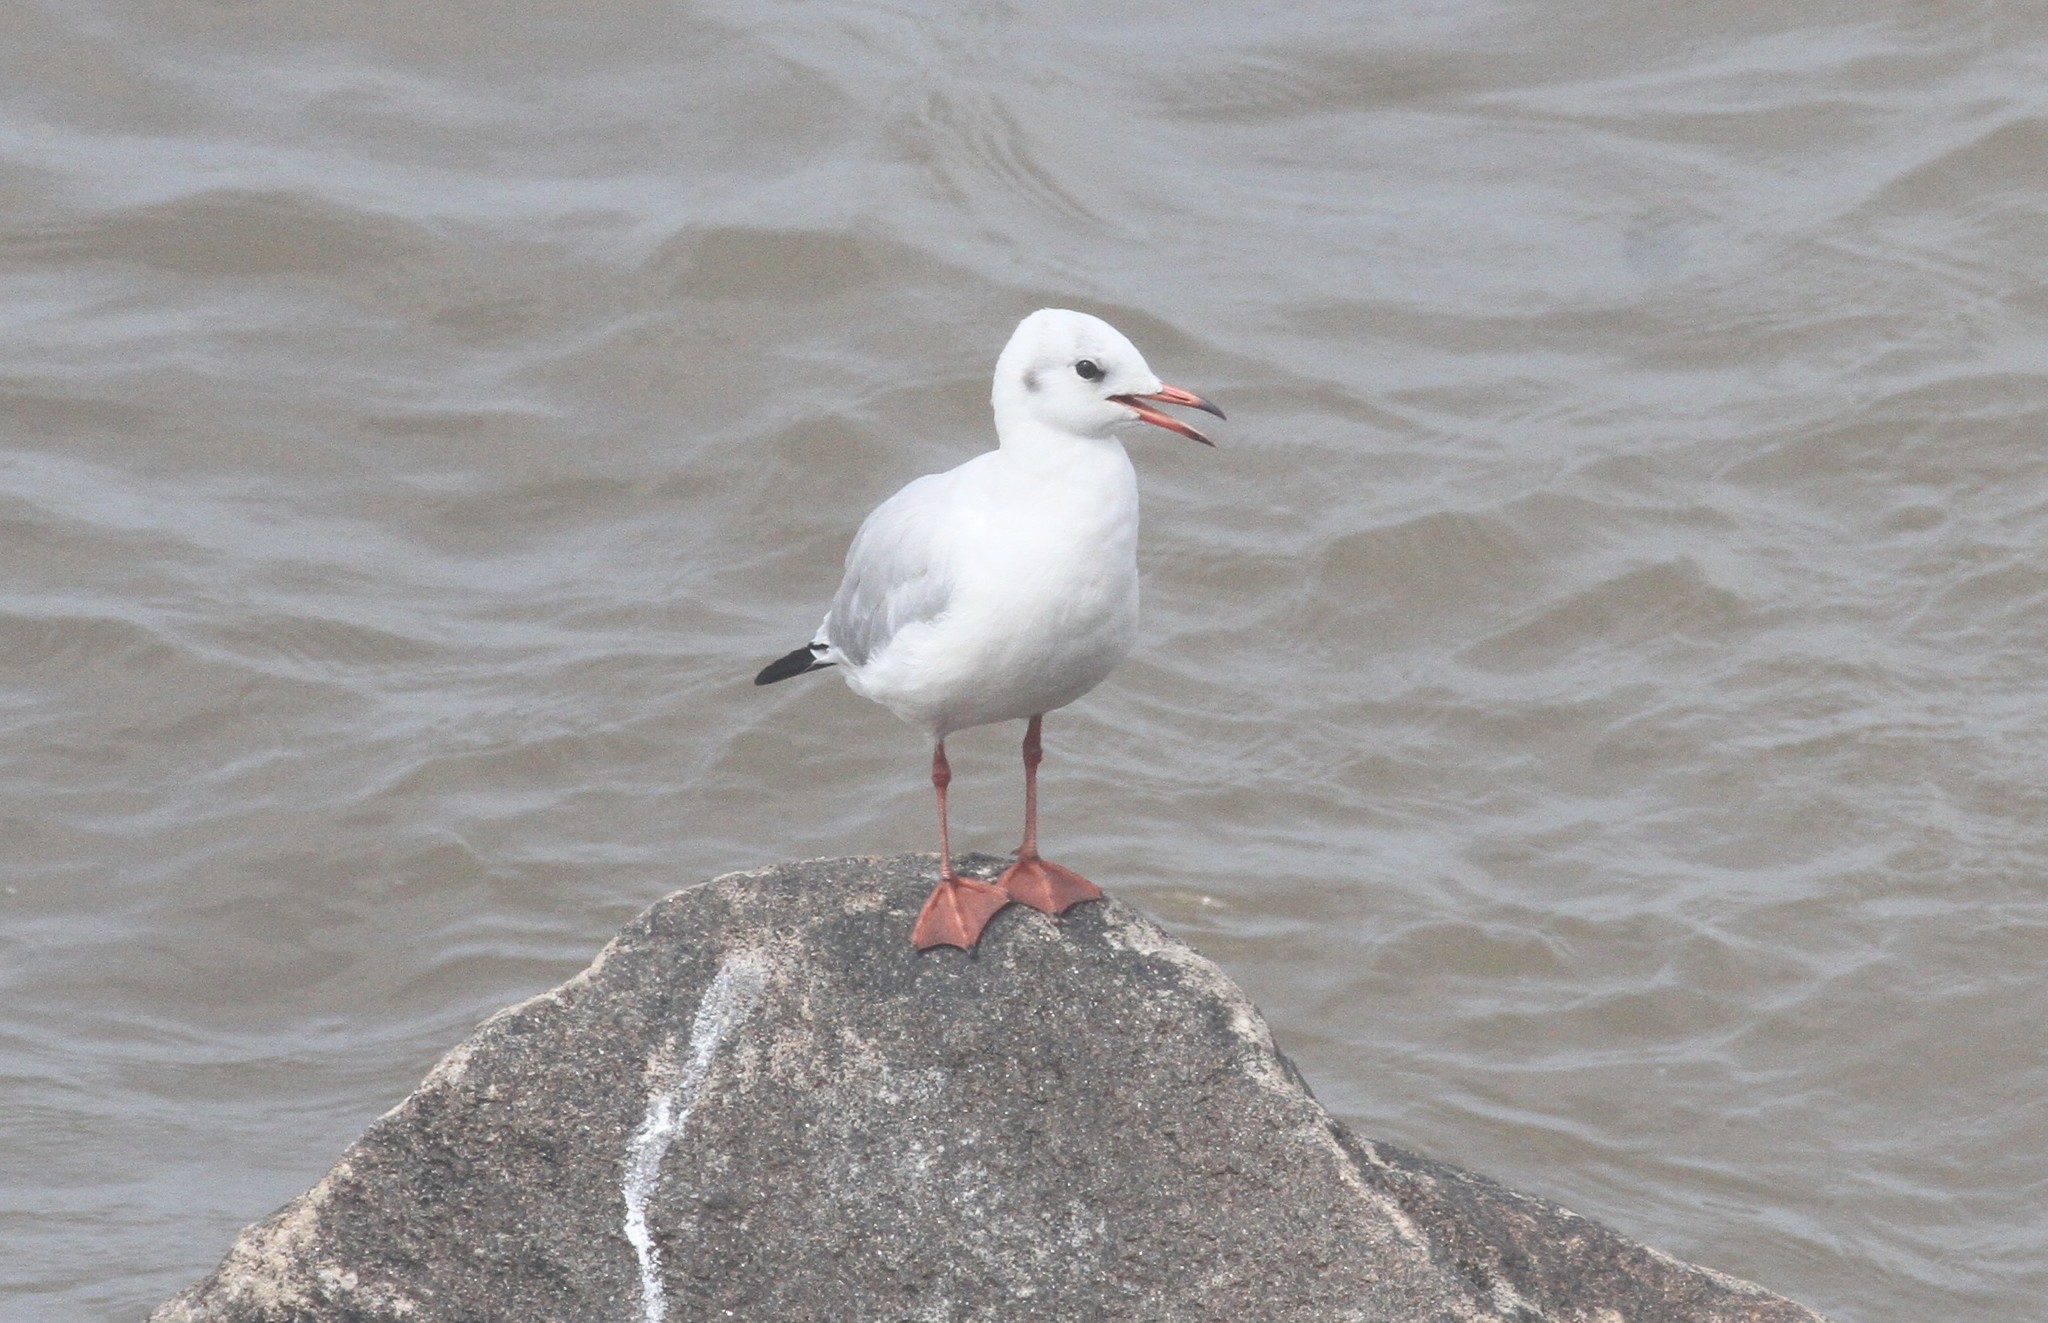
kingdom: Animalia
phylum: Chordata
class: Aves
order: Charadriiformes
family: Laridae
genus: Chroicocephalus
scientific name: Chroicocephalus ridibundus
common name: Black-headed gull
